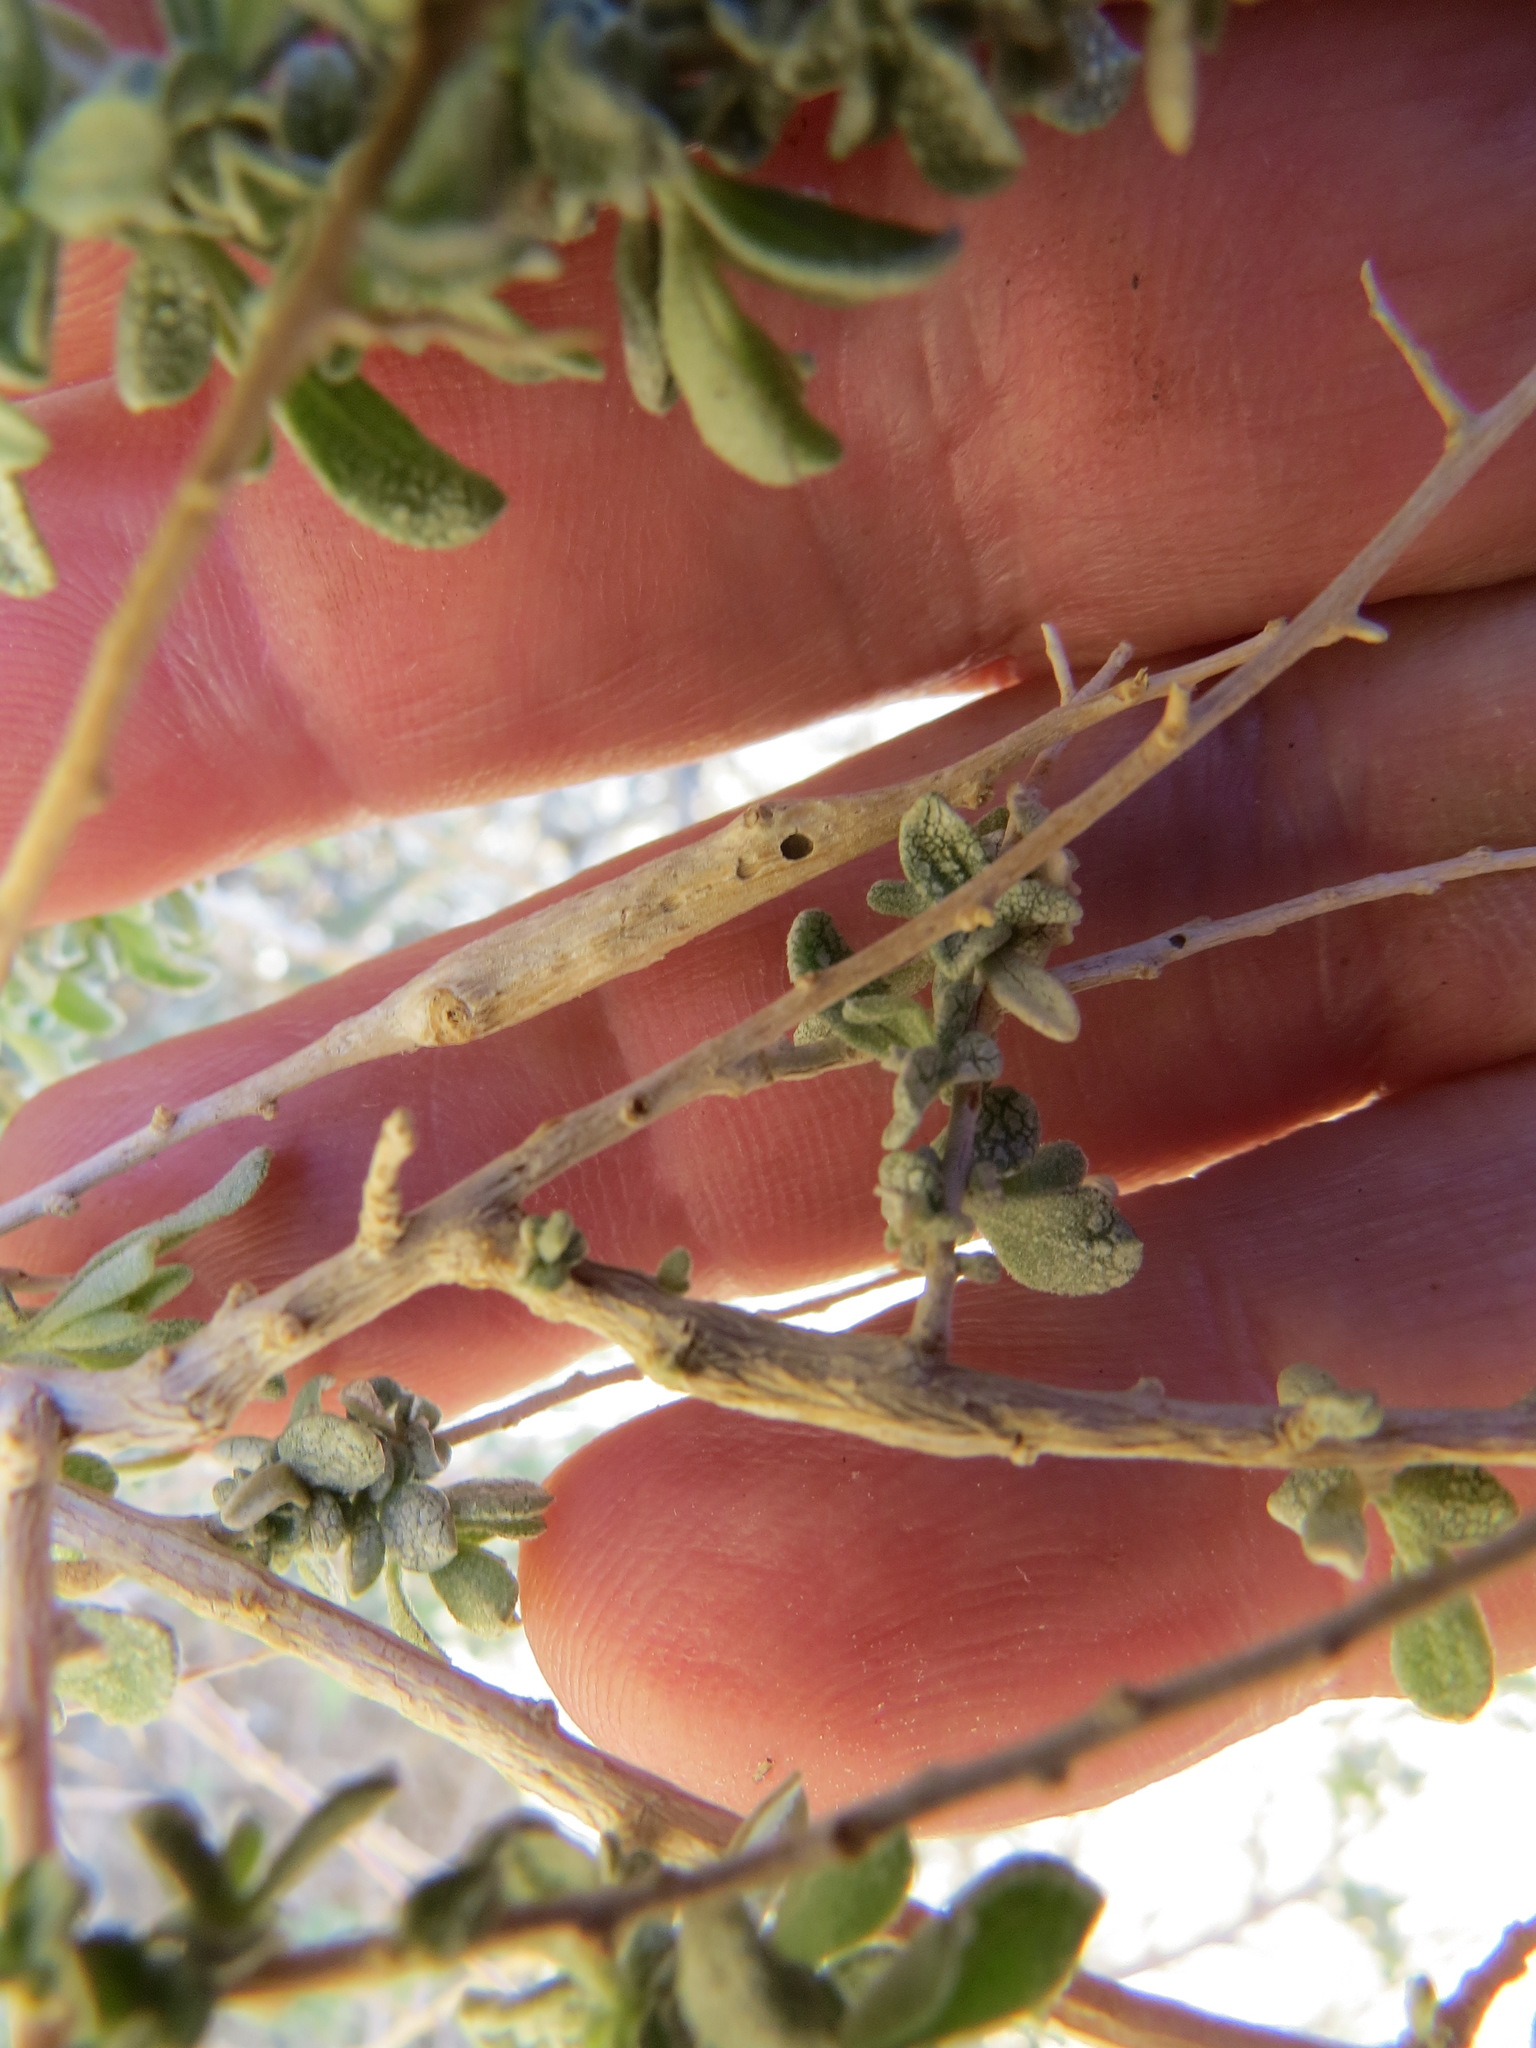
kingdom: Animalia
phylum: Arthropoda
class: Insecta
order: Diptera
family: Cecidomyiidae
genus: Neolasioptera
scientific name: Neolasioptera willistoni
